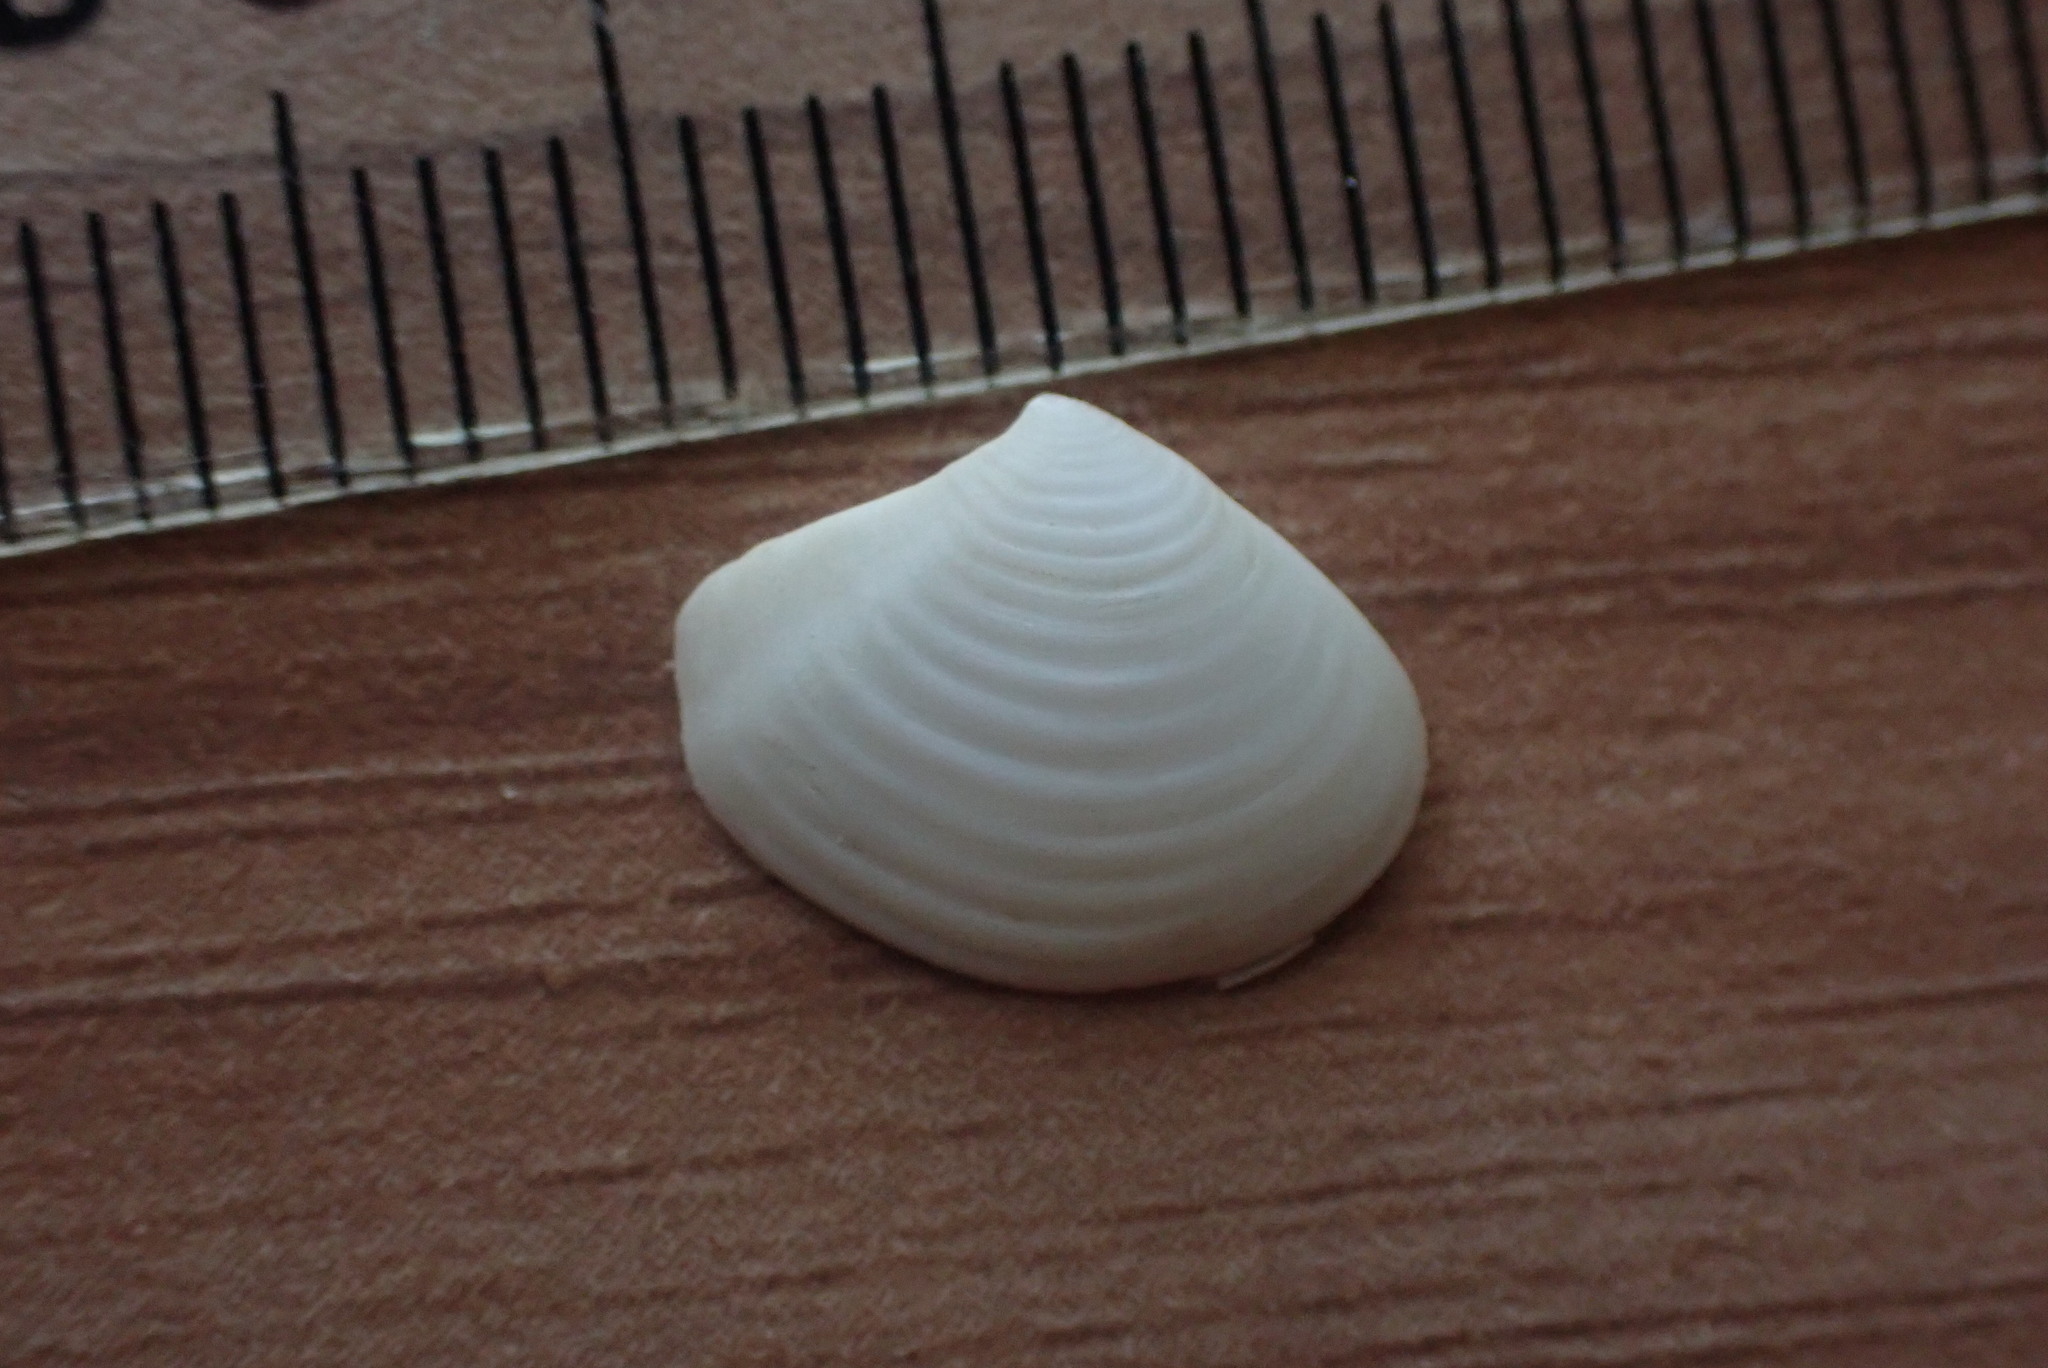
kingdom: Animalia
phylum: Mollusca
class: Bivalvia
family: Myochamidae
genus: Myadora
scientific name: Myadora subrostrata
